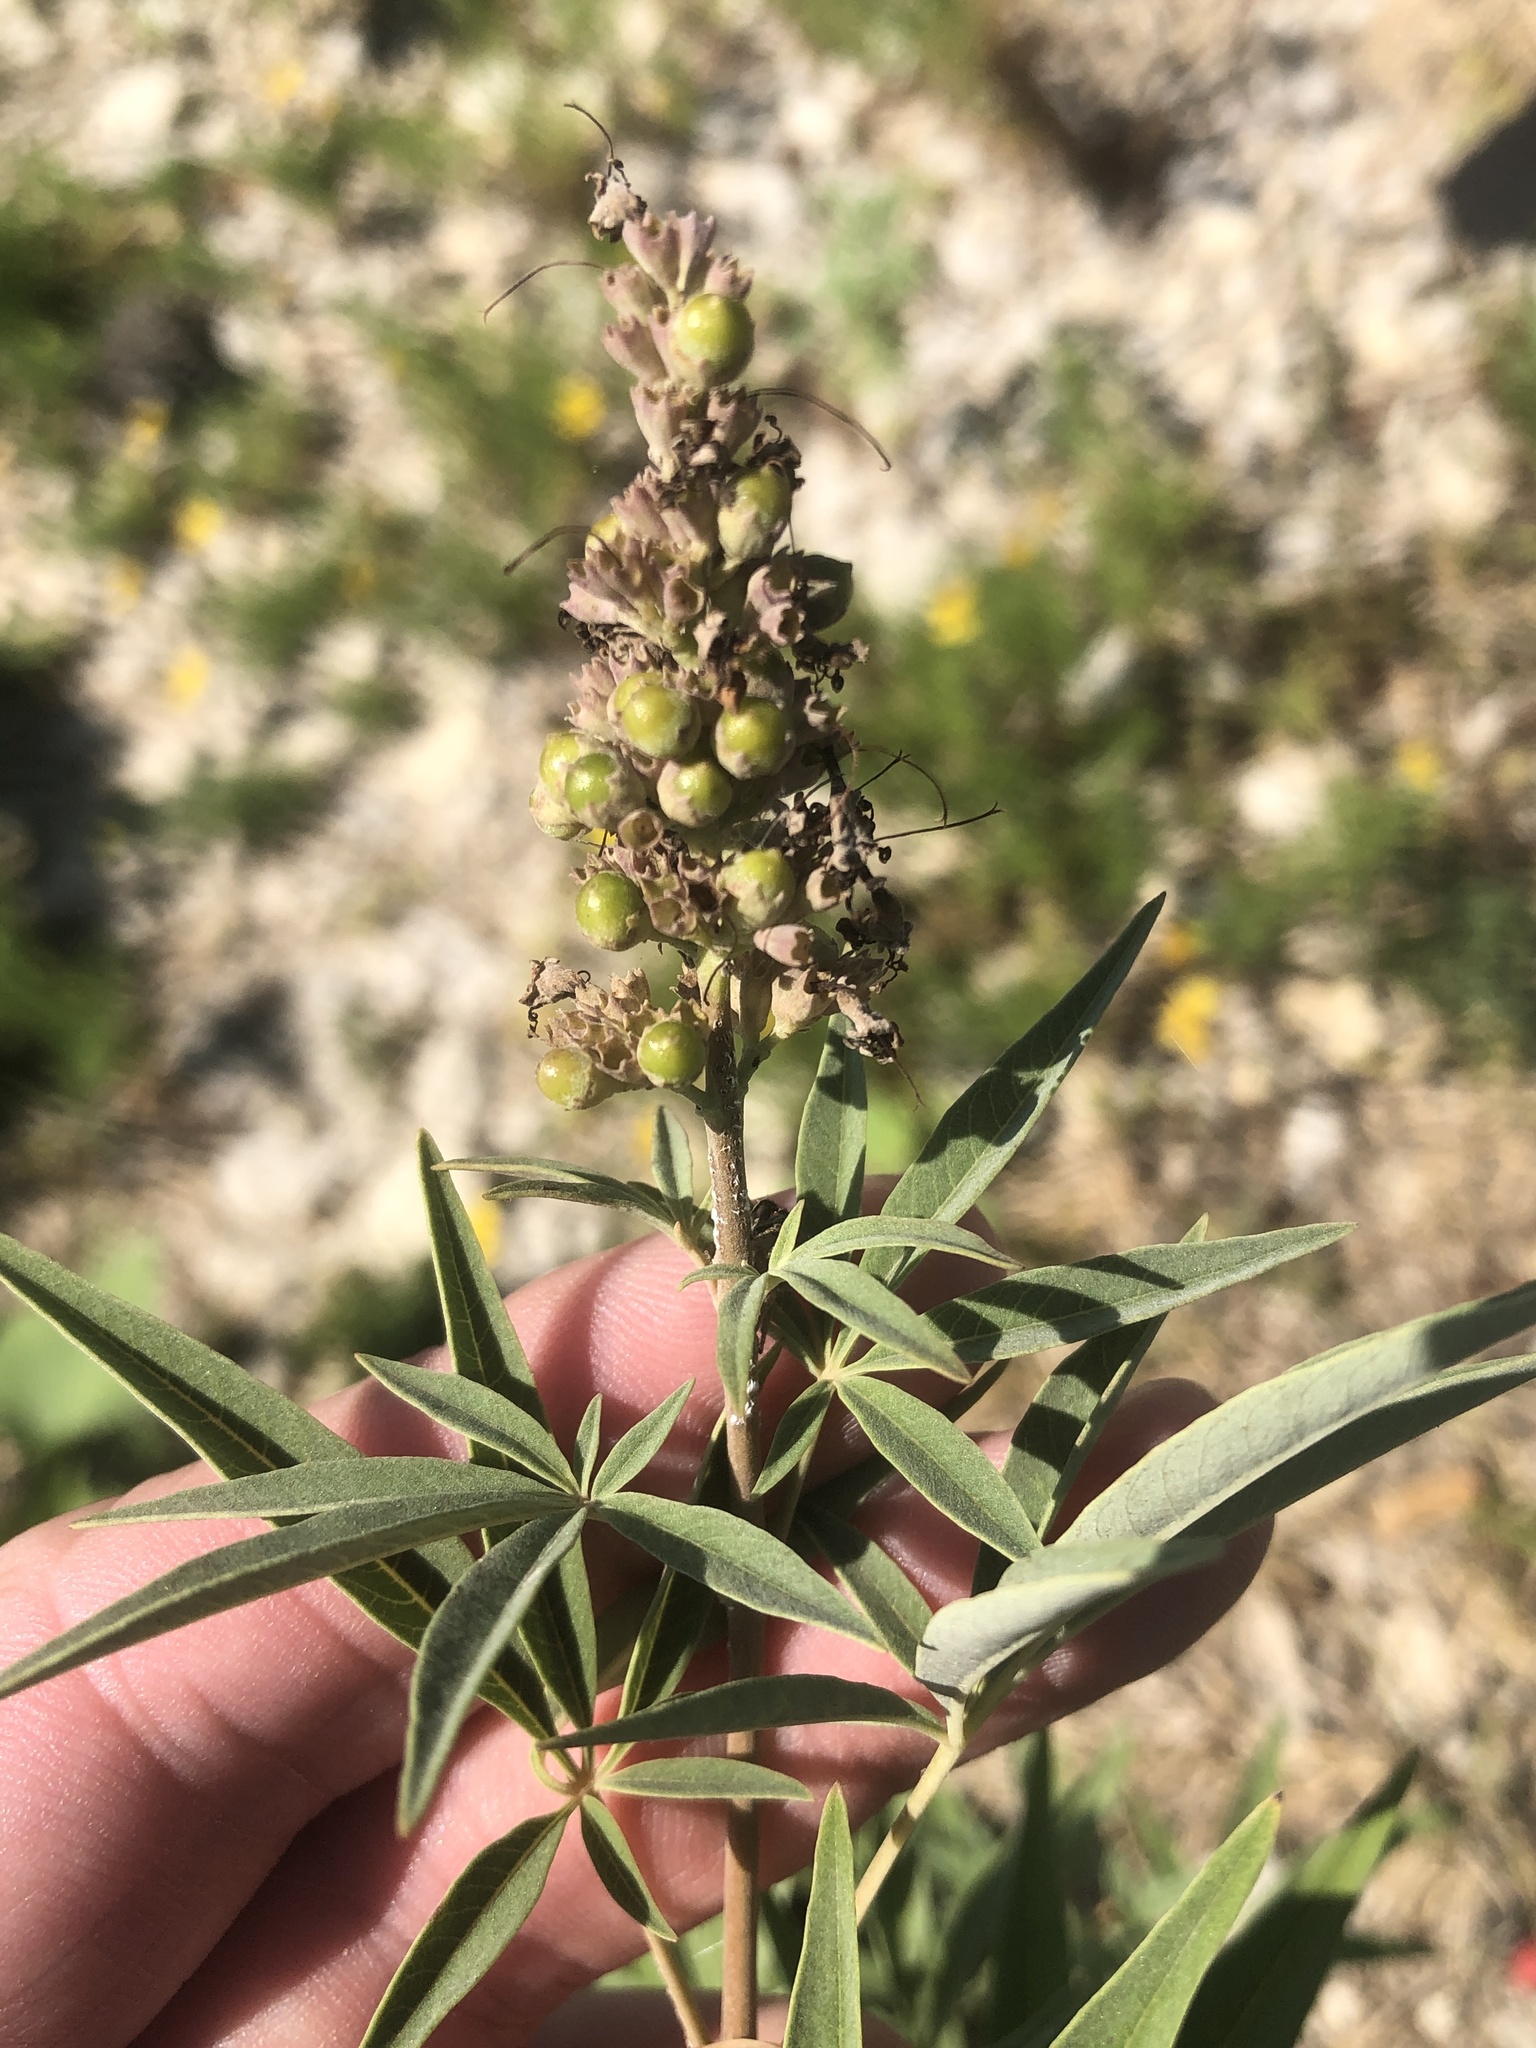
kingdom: Plantae
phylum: Tracheophyta
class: Magnoliopsida
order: Lamiales
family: Lamiaceae
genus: Vitex
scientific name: Vitex agnus-castus
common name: Chasteberry
